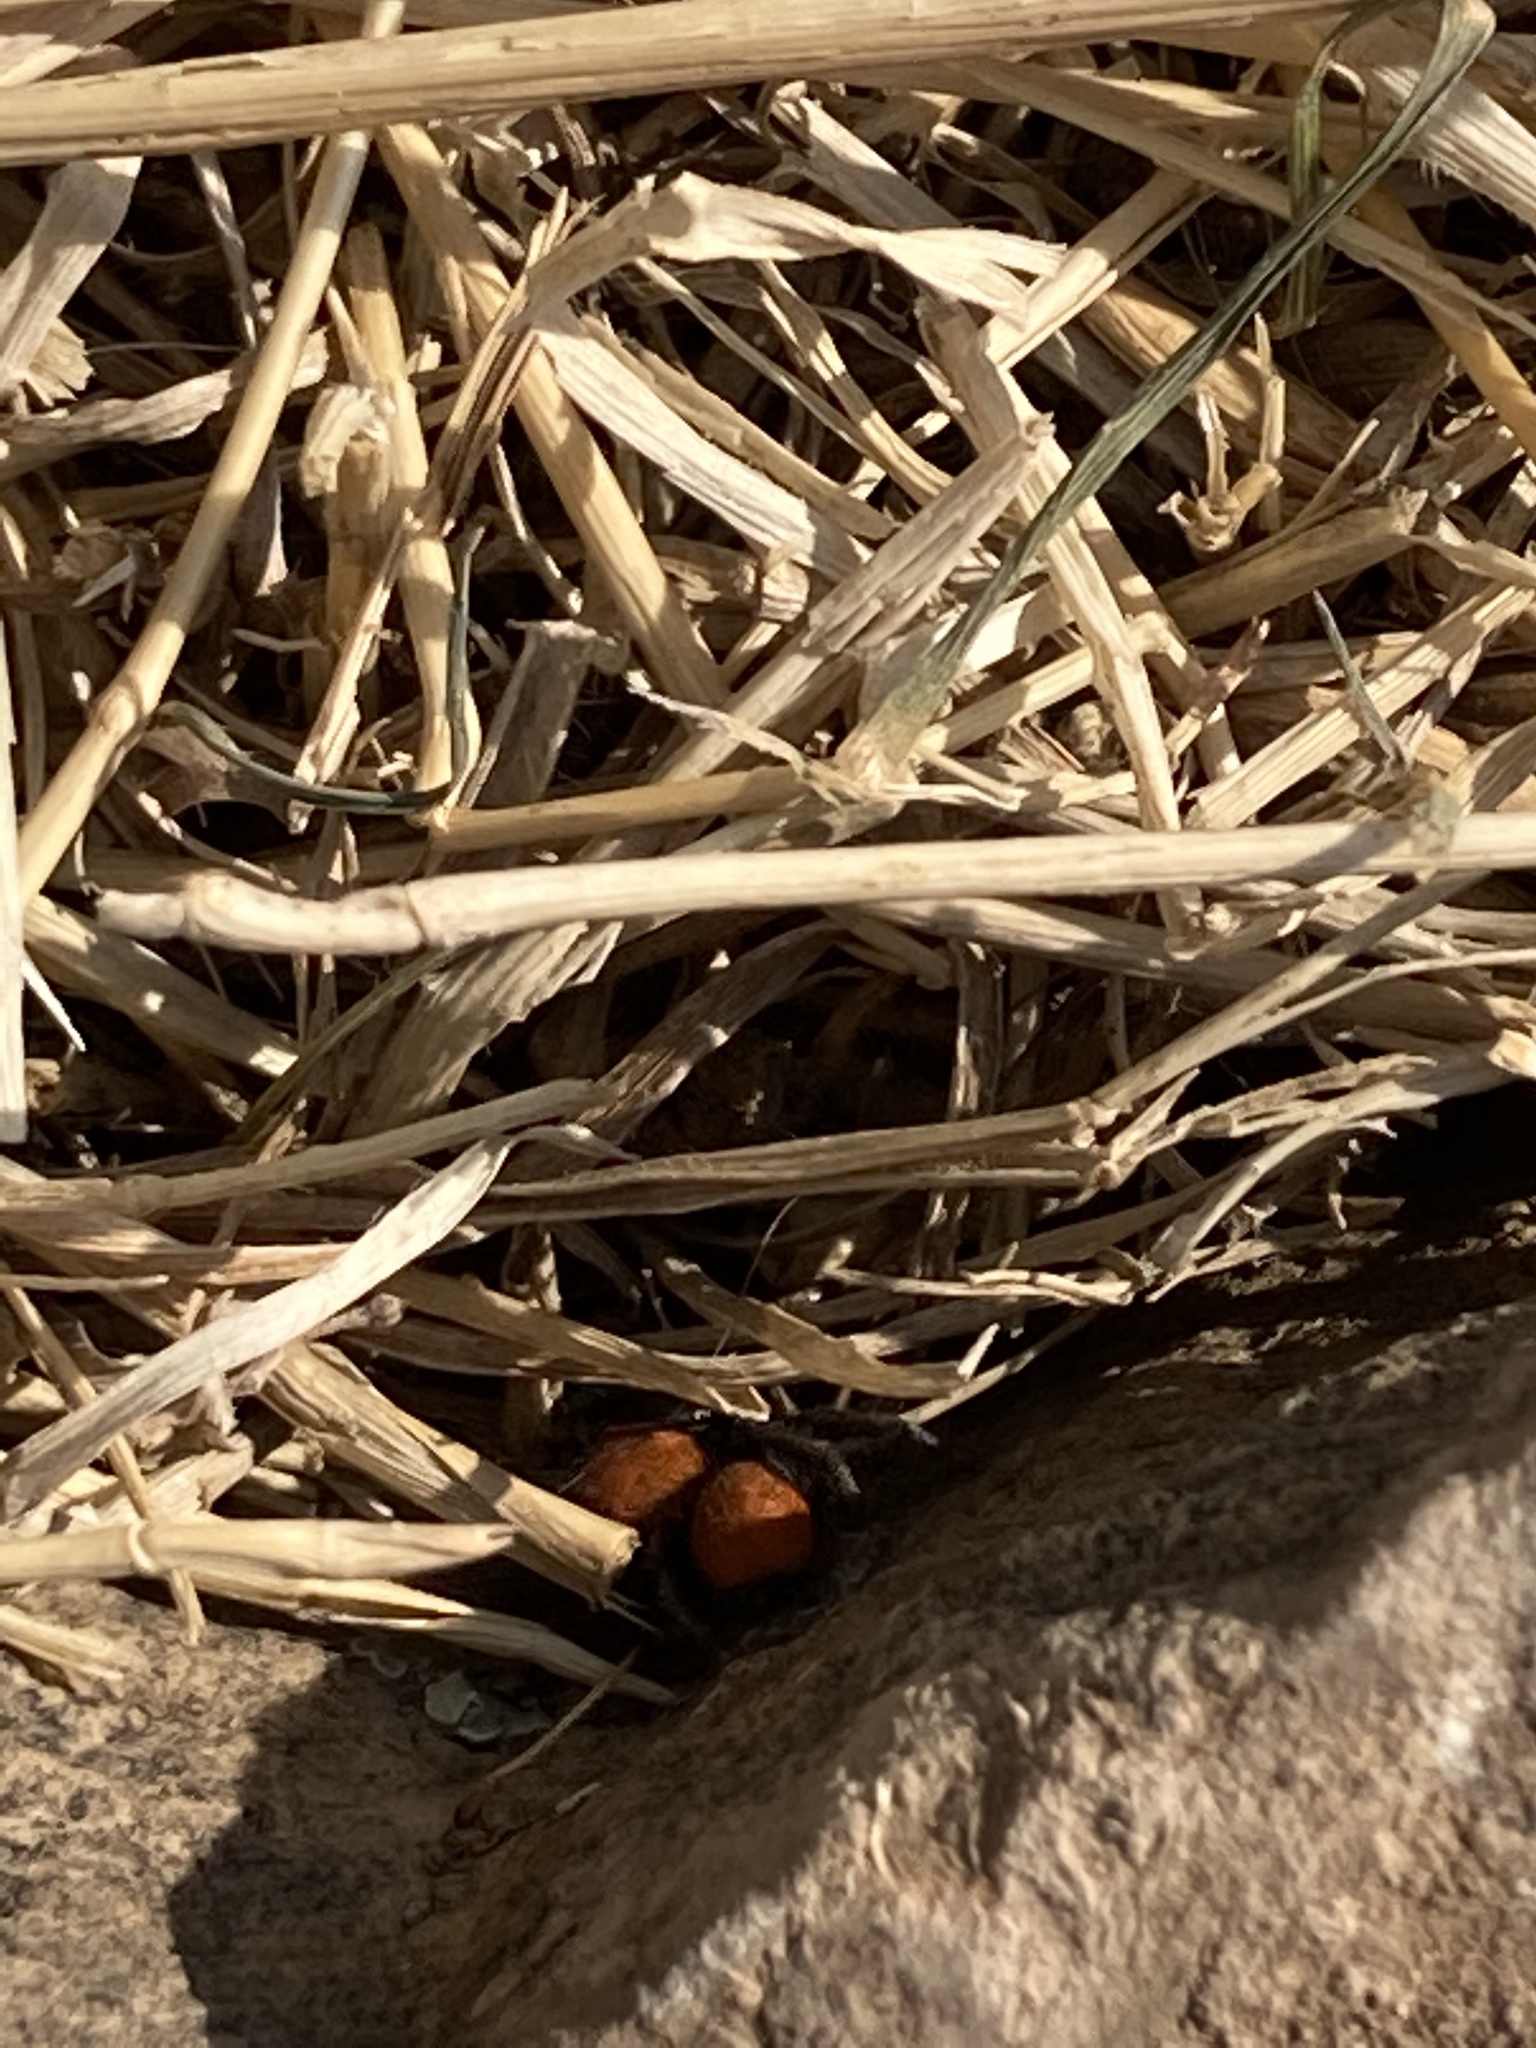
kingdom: Animalia
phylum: Arthropoda
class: Arachnida
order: Araneae
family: Salticidae
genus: Phidippus
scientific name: Phidippus apacheanus
